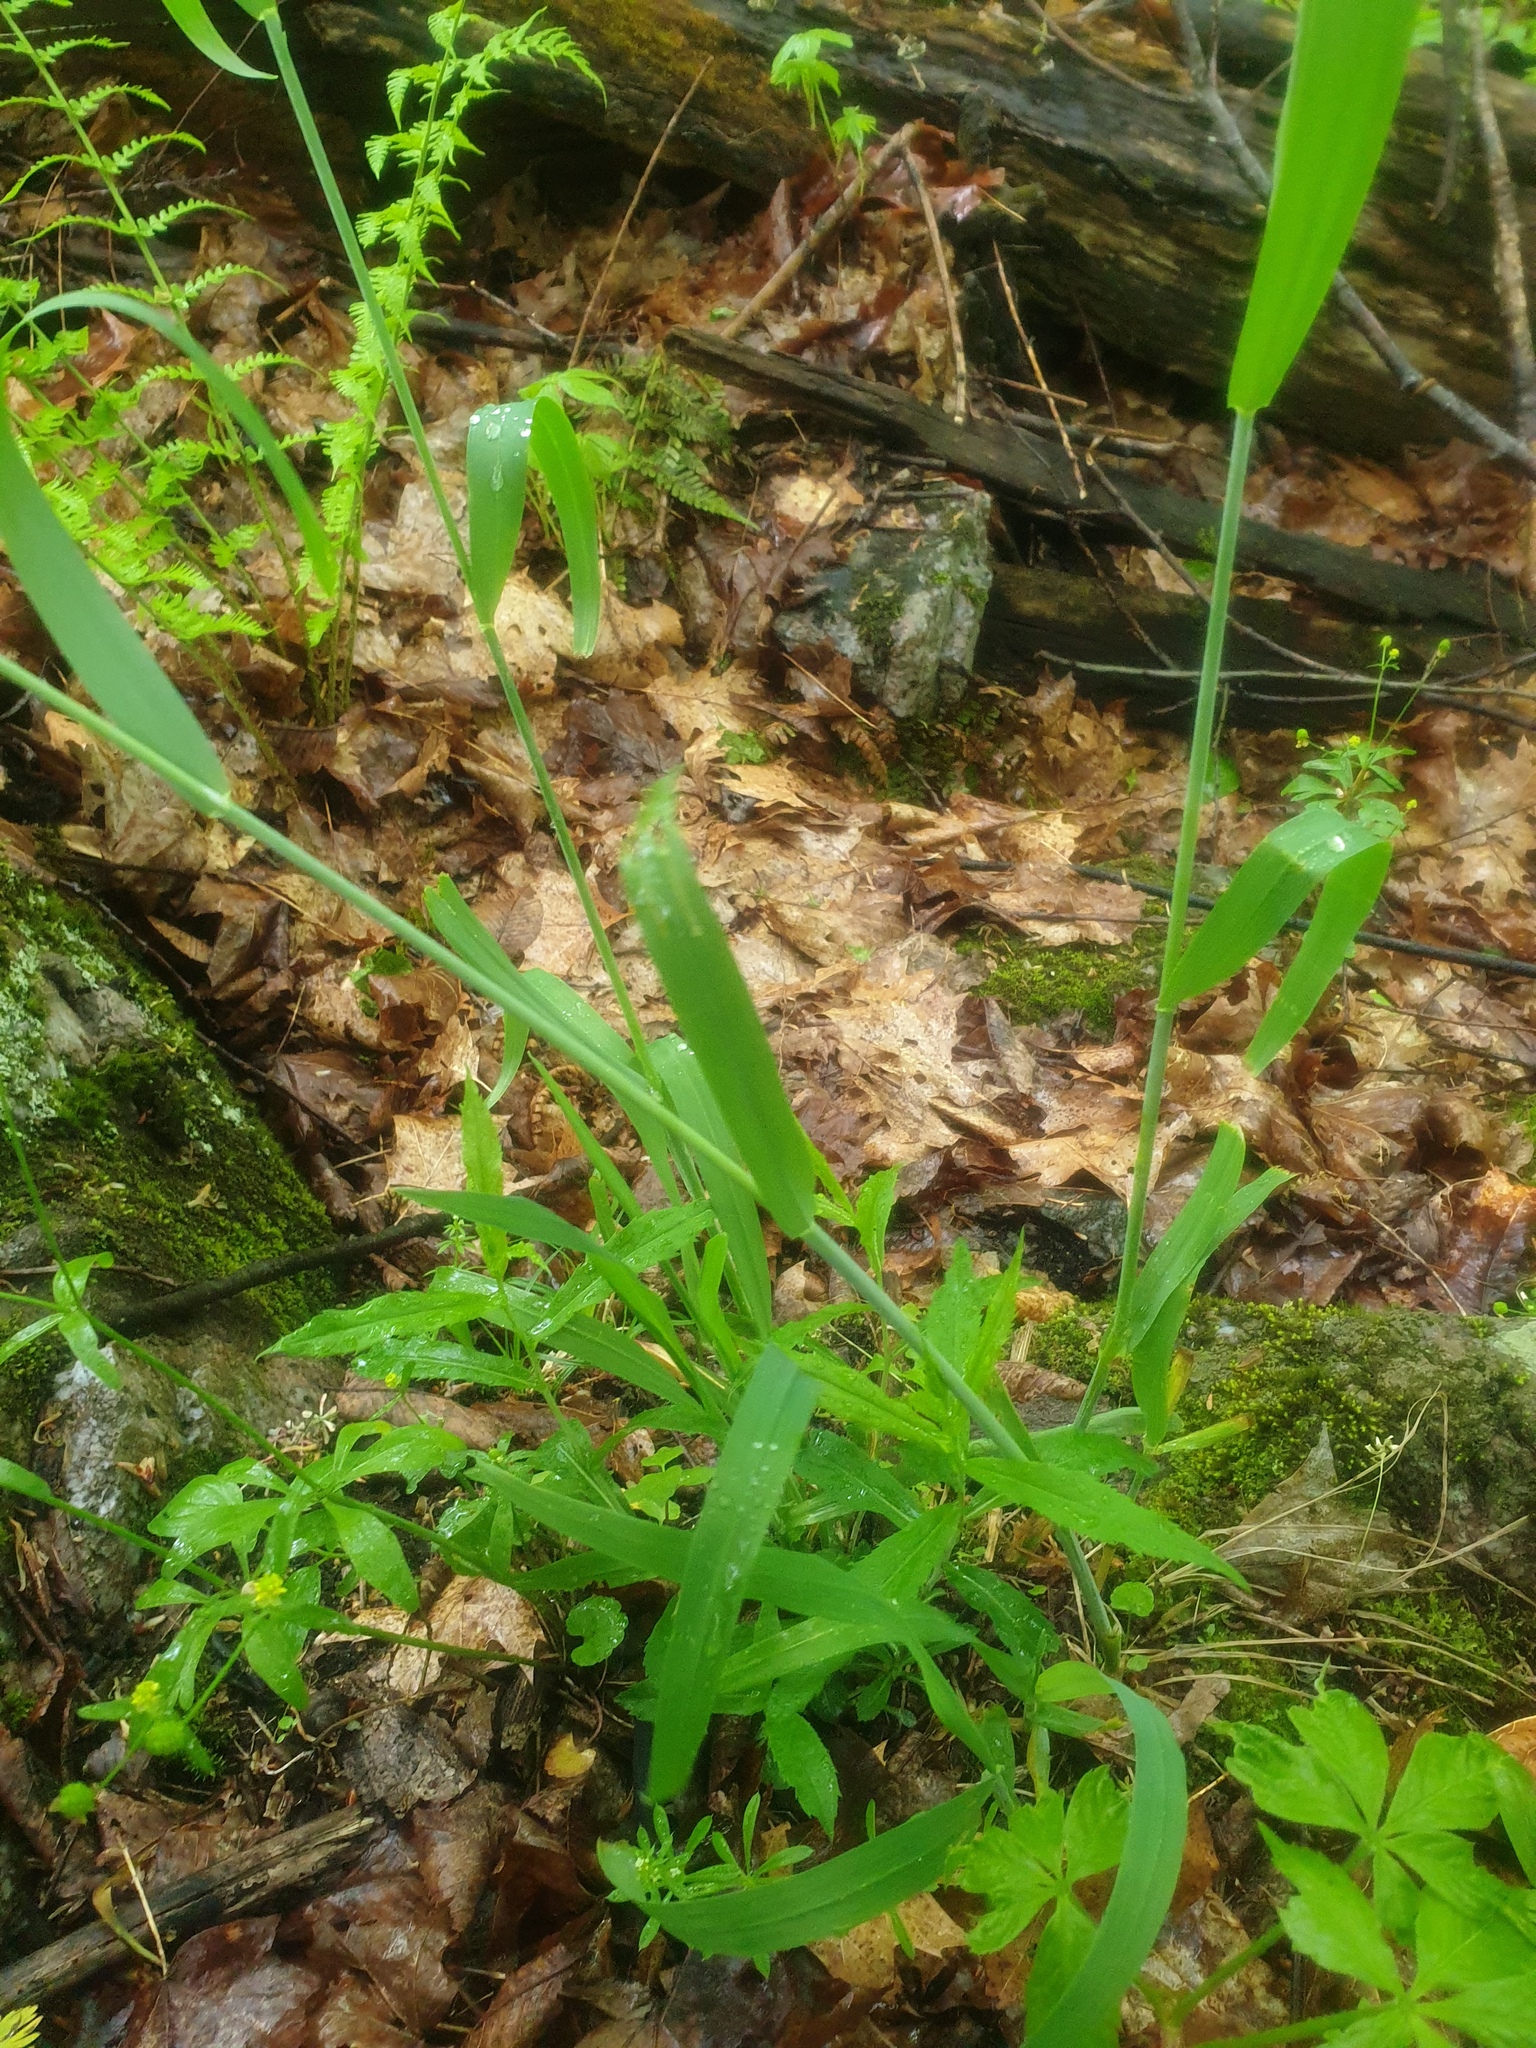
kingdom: Plantae
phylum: Tracheophyta
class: Liliopsida
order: Poales
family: Poaceae
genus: Milium
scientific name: Milium effusum
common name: Wood millet
